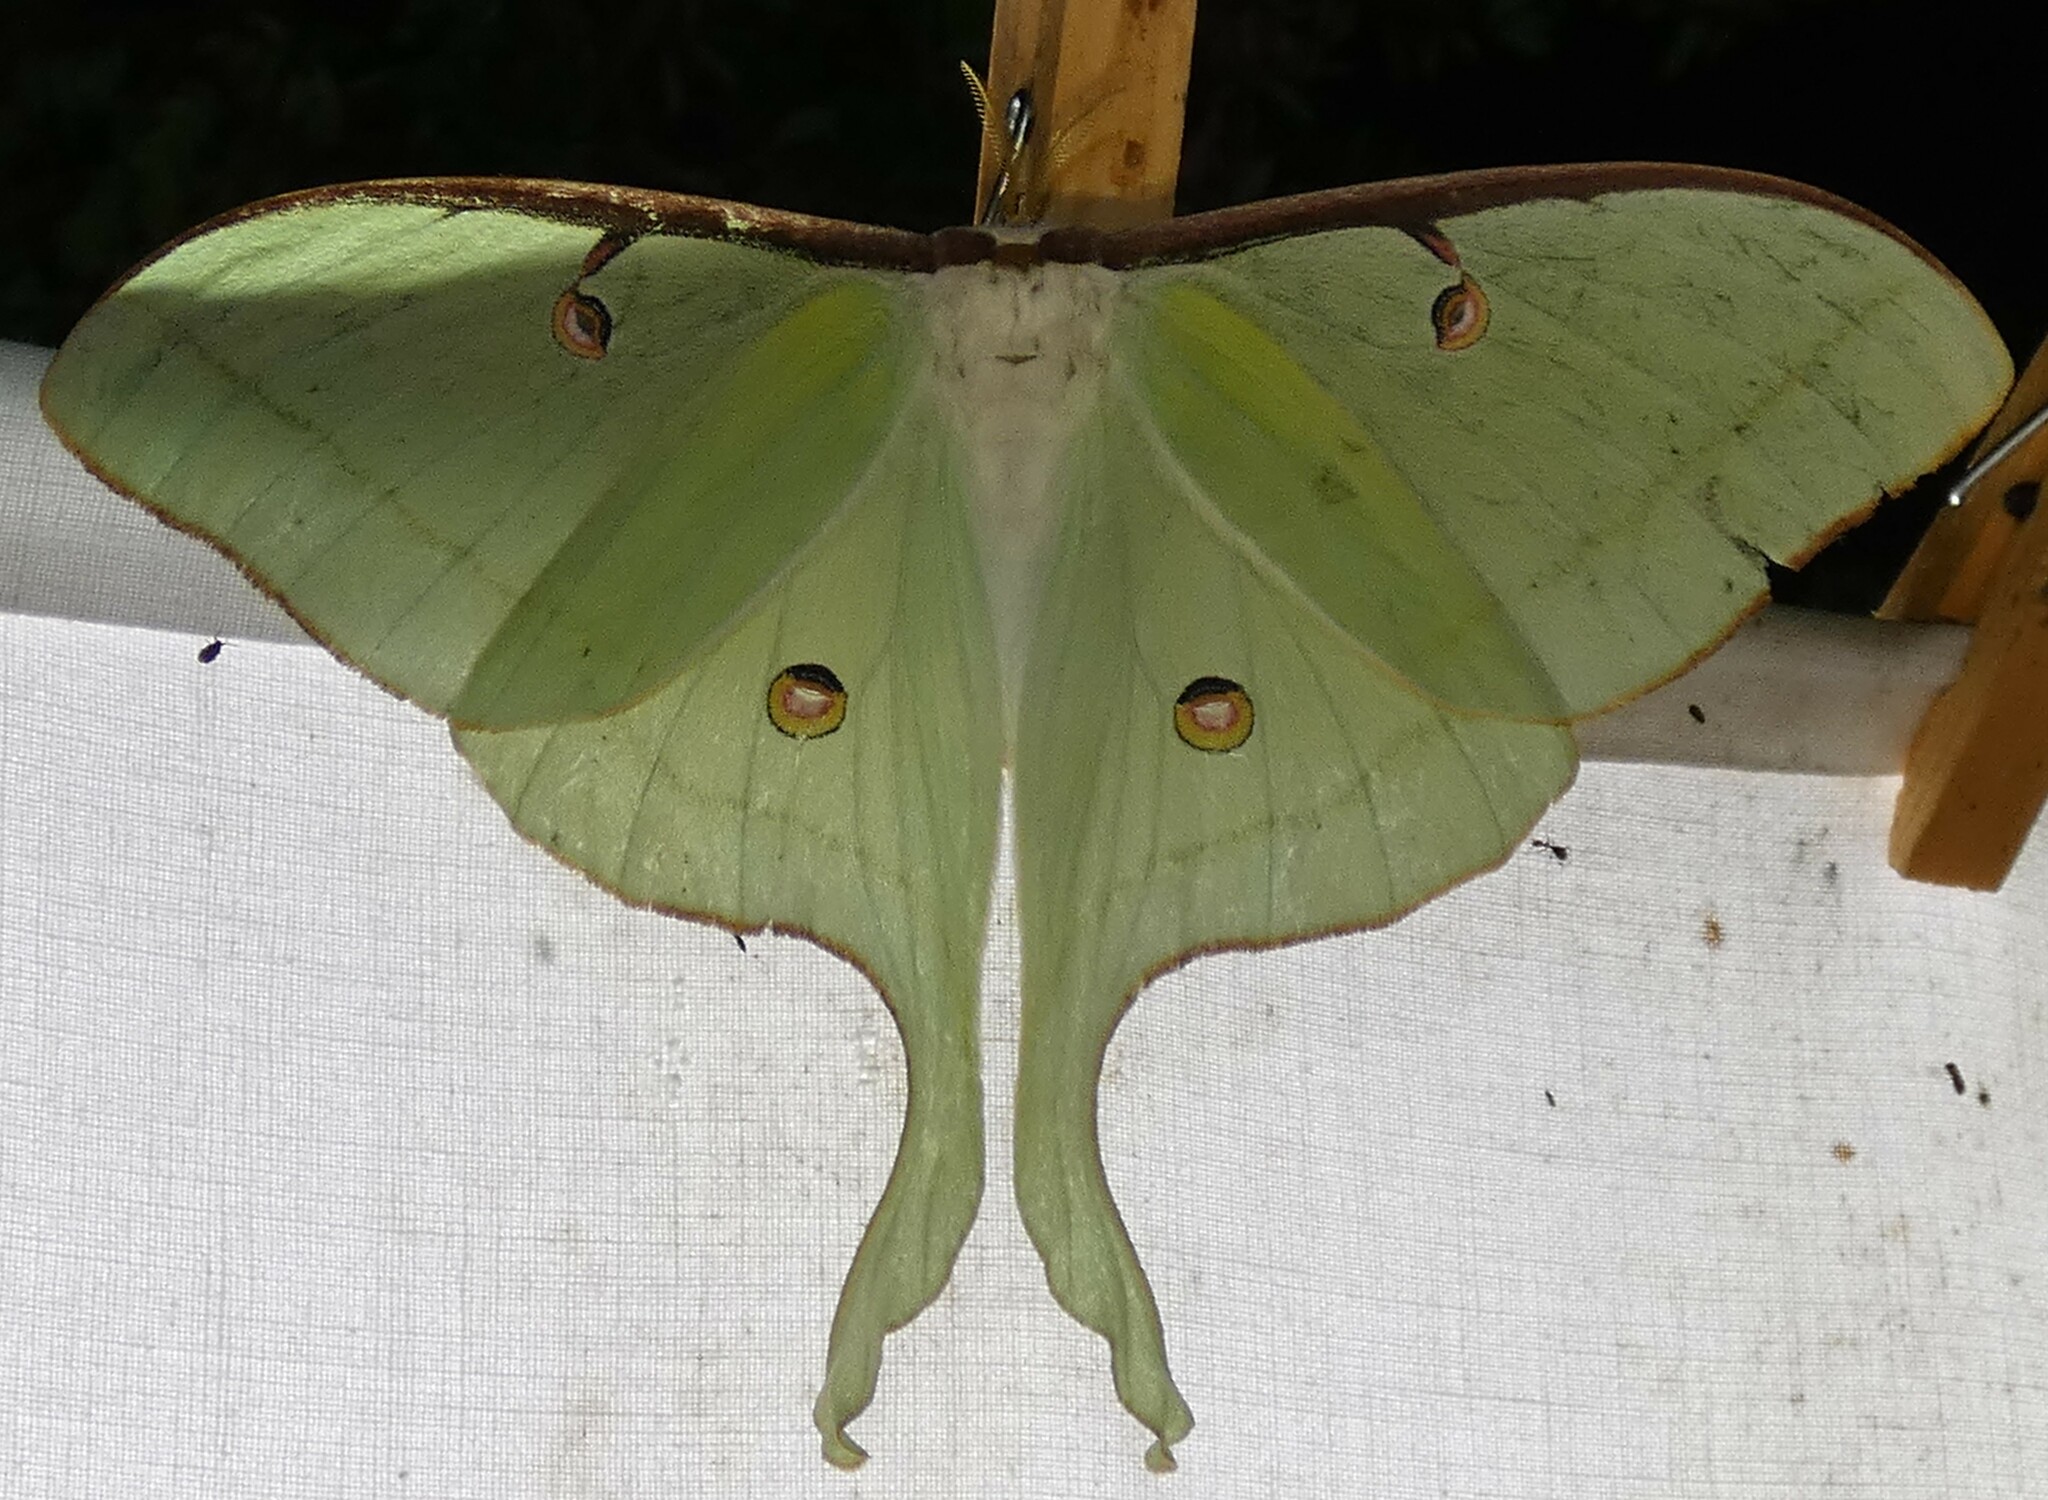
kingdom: Animalia
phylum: Arthropoda
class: Insecta
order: Lepidoptera
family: Saturniidae
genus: Actias
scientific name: Actias luna
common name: Luna moth
